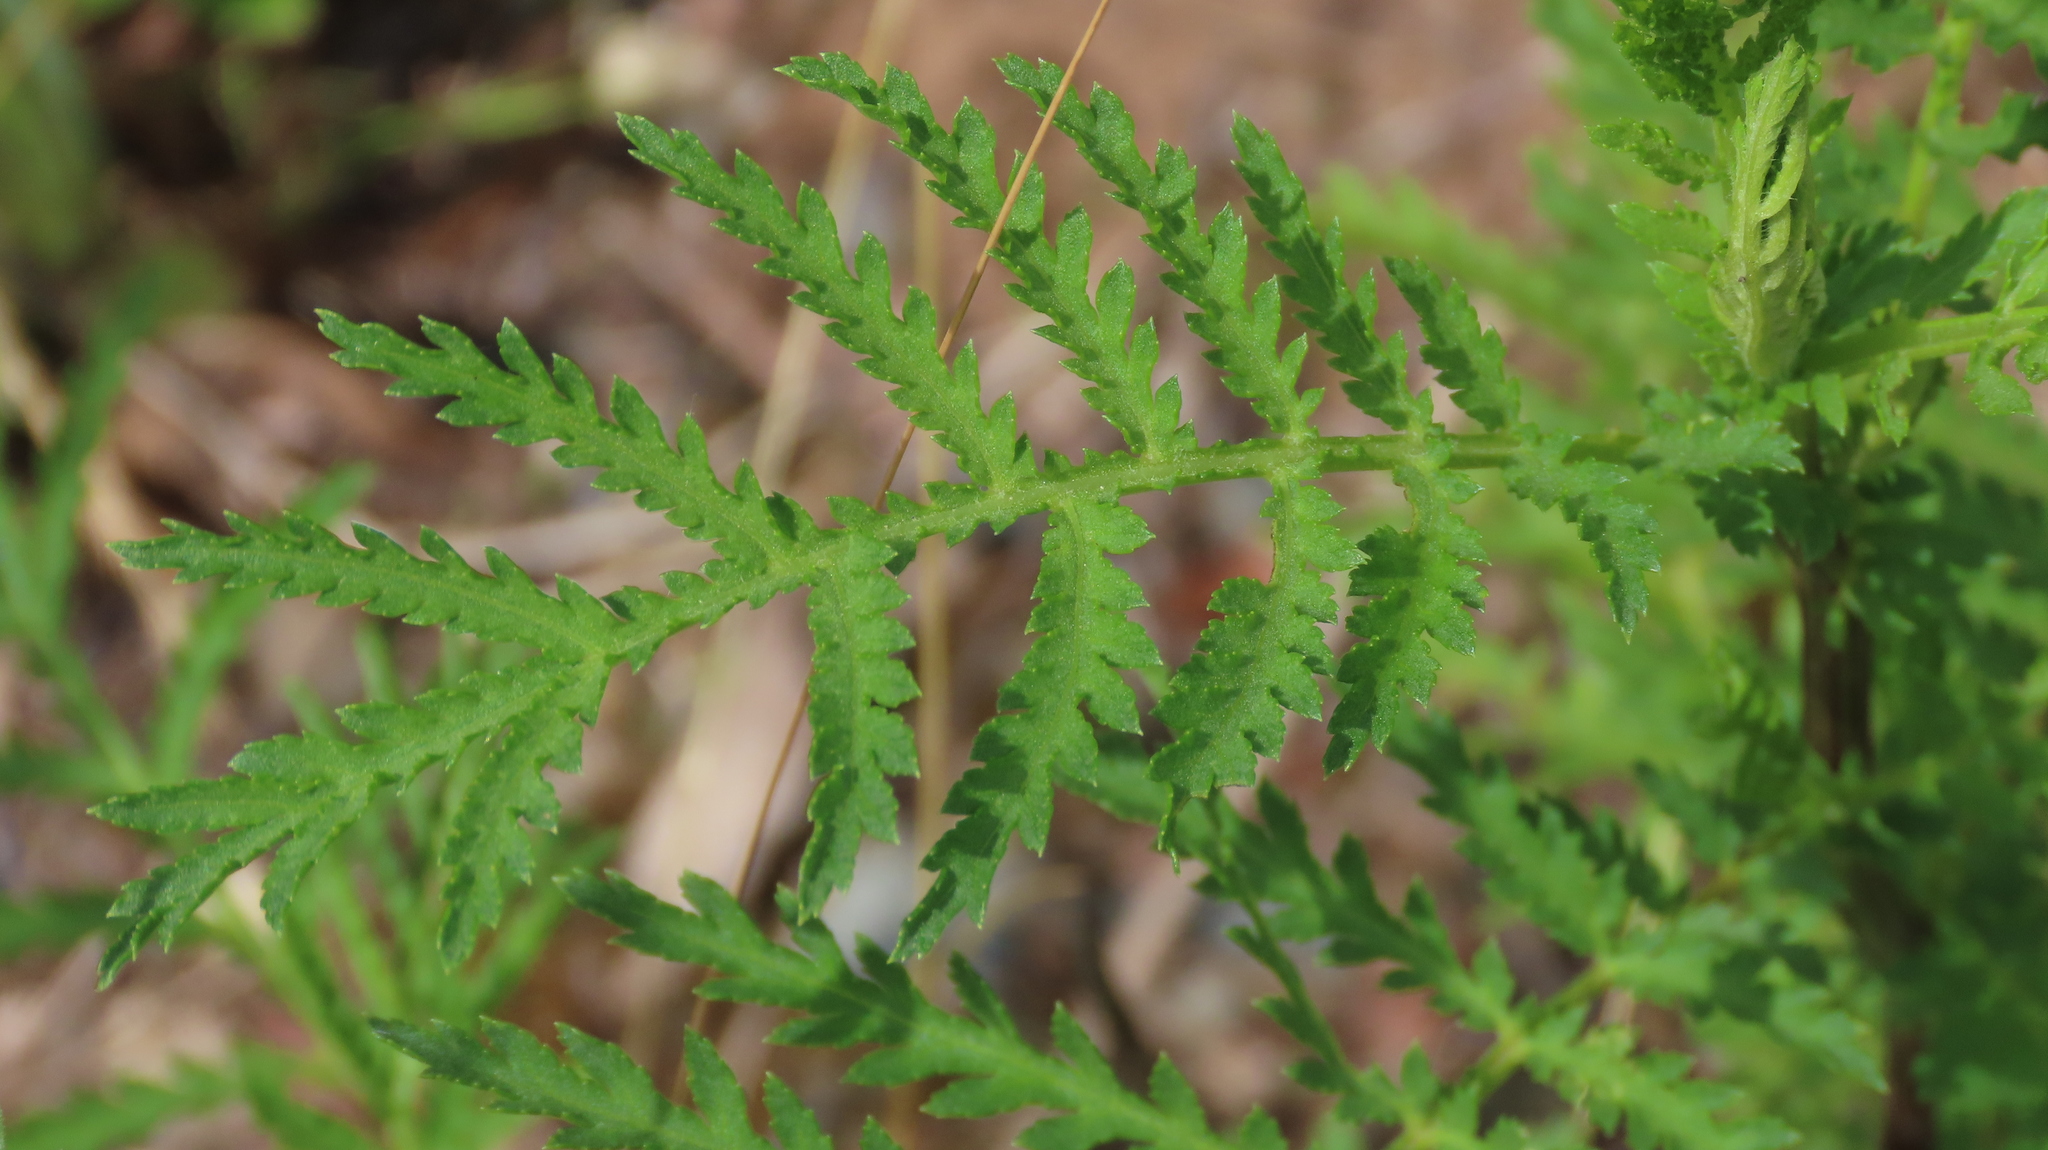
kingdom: Plantae
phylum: Tracheophyta
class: Magnoliopsida
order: Asterales
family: Asteraceae
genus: Tanacetum
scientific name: Tanacetum vulgare
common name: Common tansy
